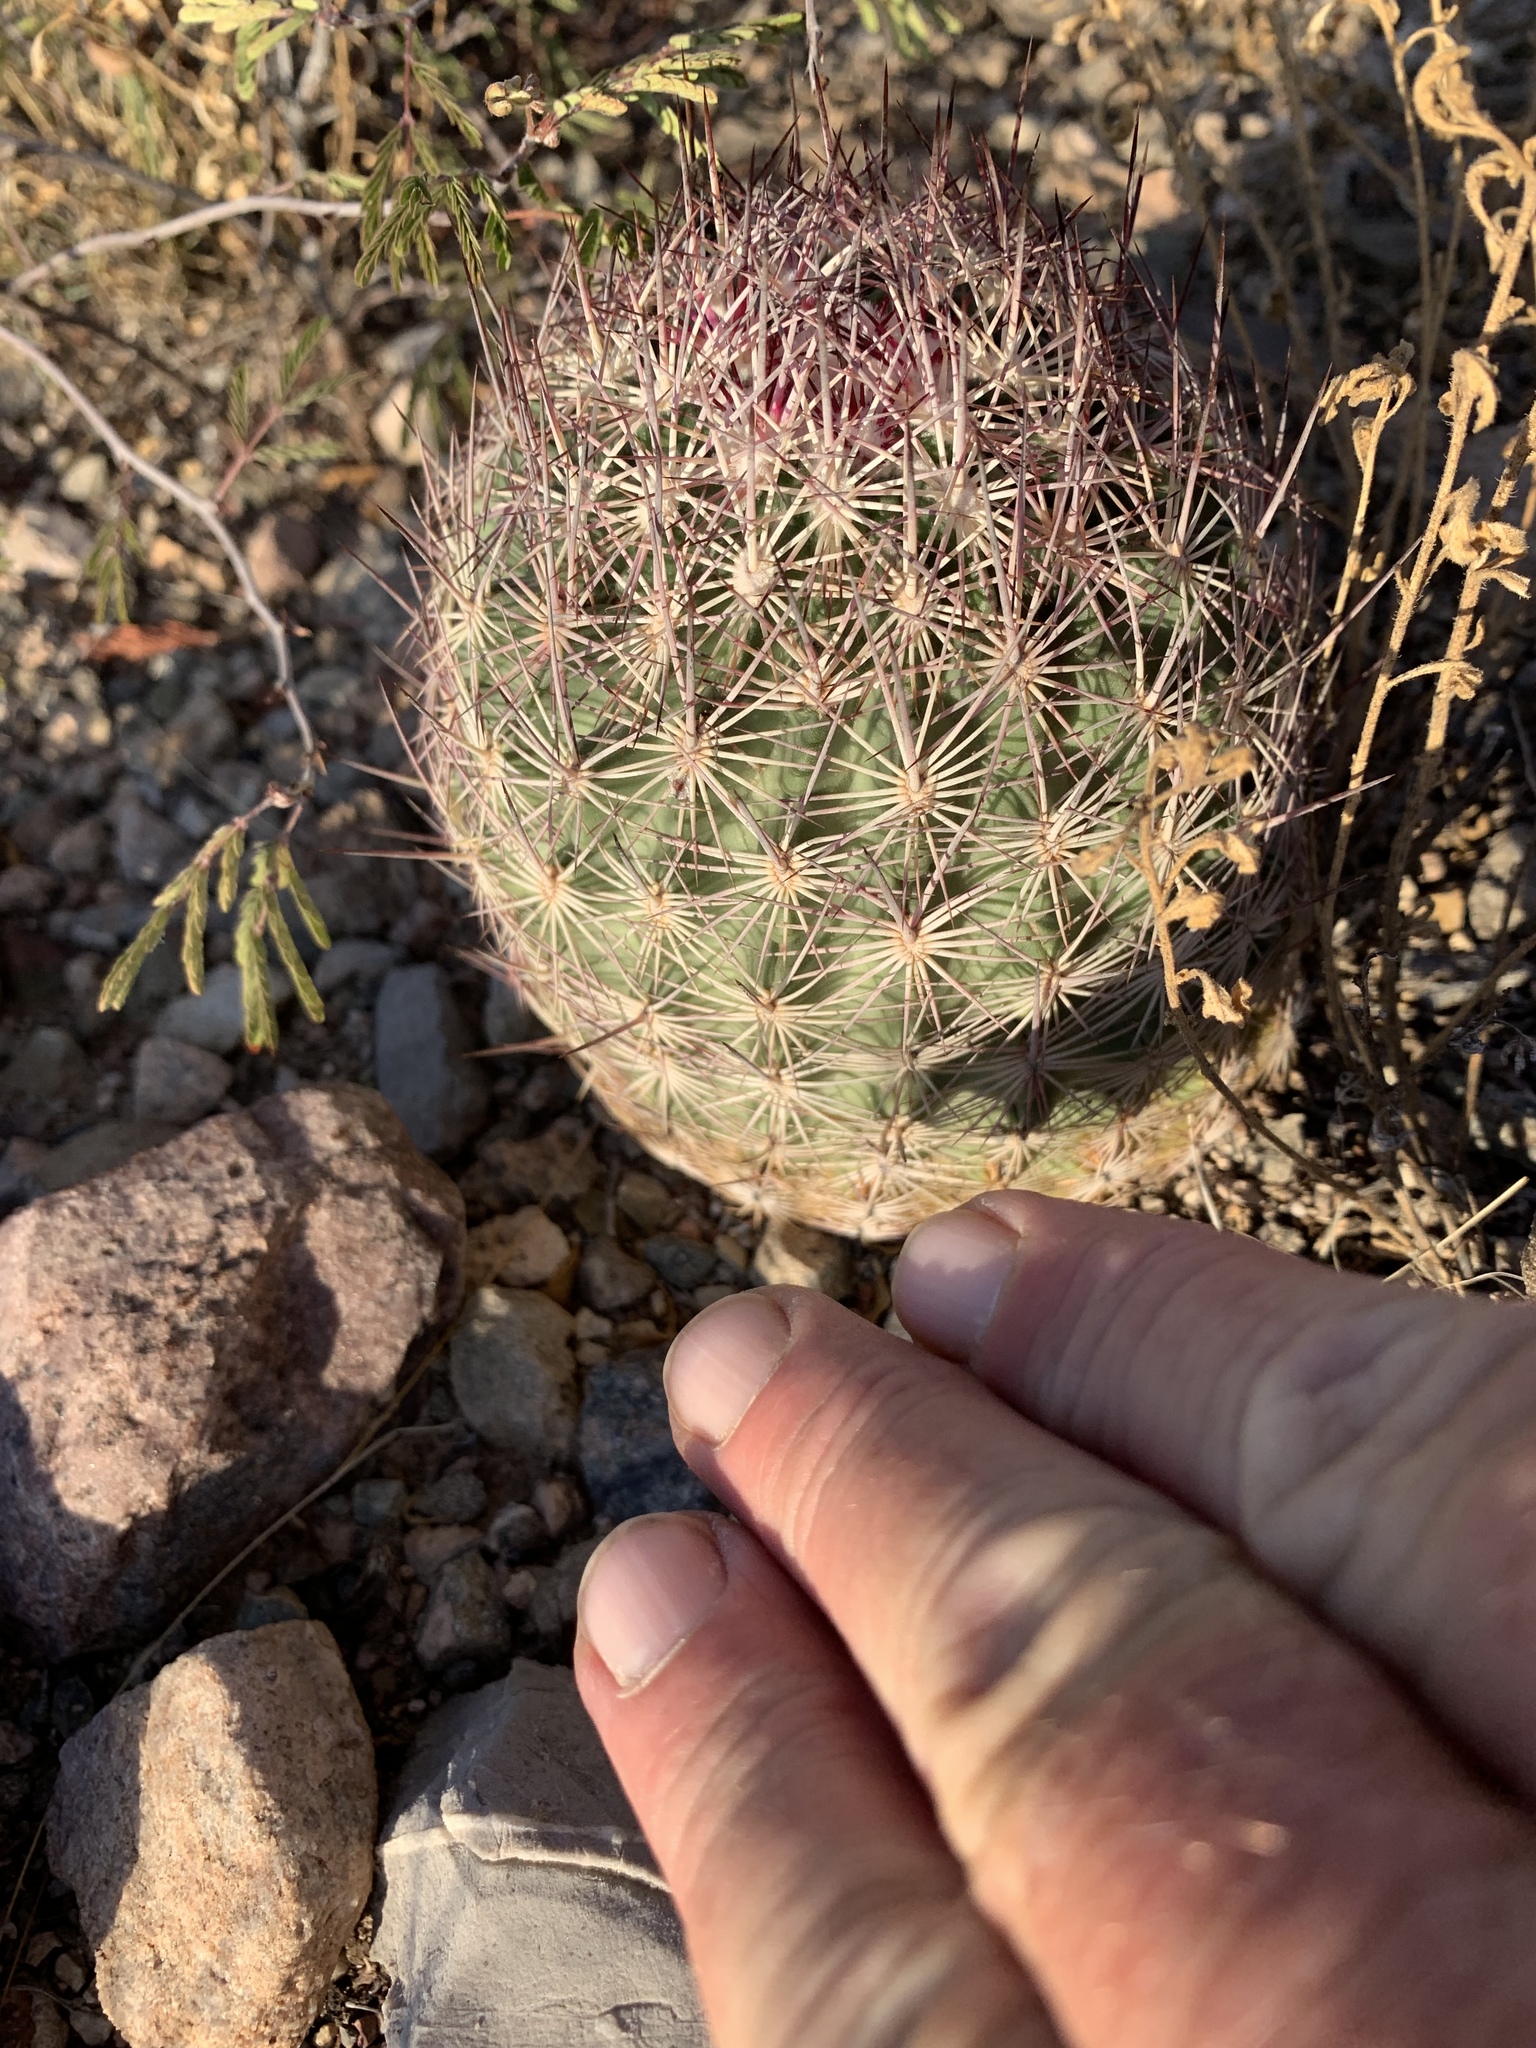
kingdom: Plantae
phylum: Tracheophyta
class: Magnoliopsida
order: Caryophyllales
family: Cactaceae
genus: Sclerocactus
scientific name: Sclerocactus johnsonii
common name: Eight-spine fishhook cactus
